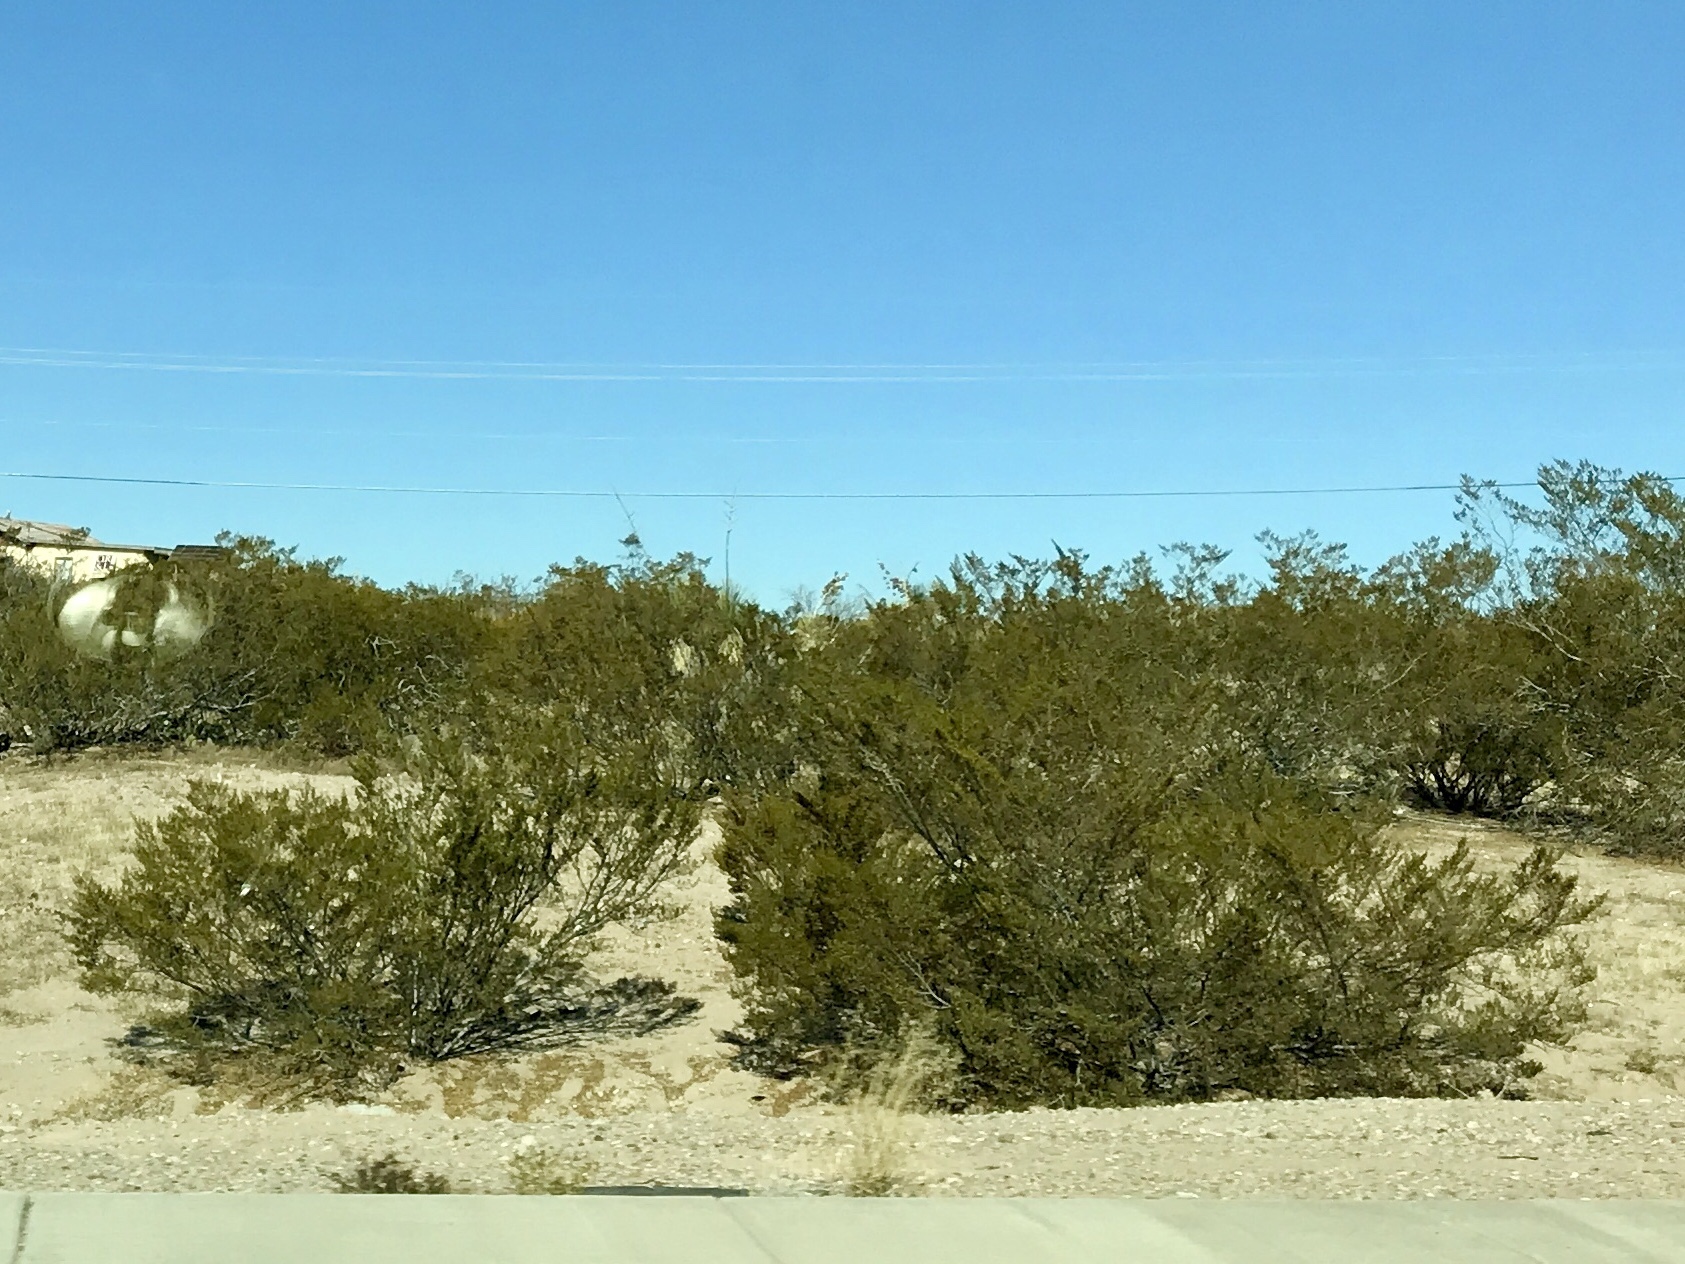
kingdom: Plantae
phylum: Tracheophyta
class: Magnoliopsida
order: Zygophyllales
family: Zygophyllaceae
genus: Larrea
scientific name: Larrea tridentata
